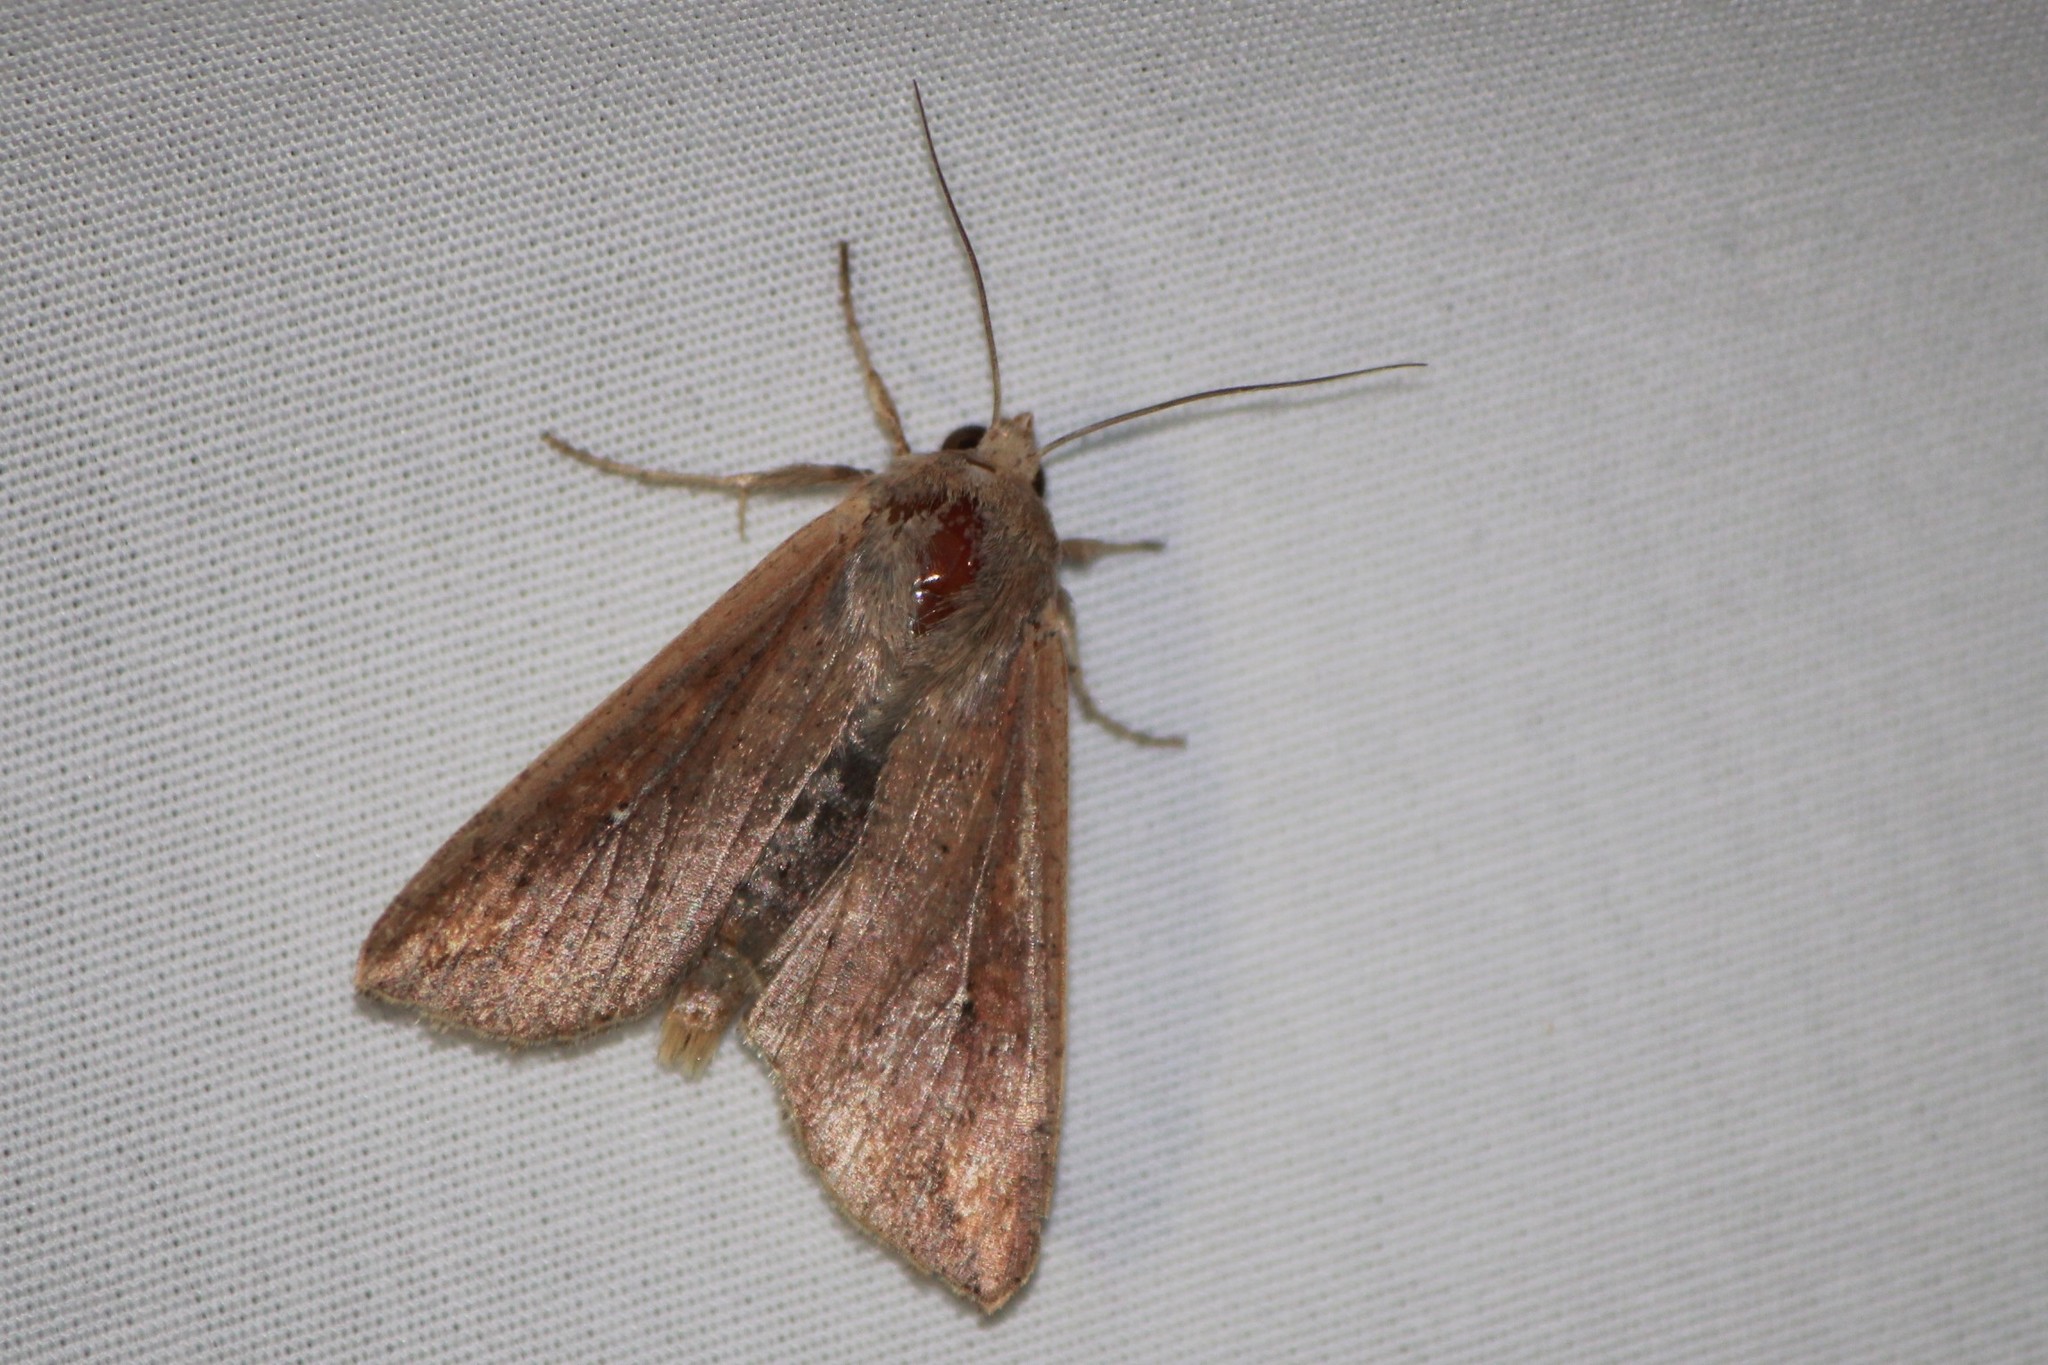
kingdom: Animalia
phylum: Arthropoda
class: Insecta
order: Lepidoptera
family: Noctuidae
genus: Mythimna
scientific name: Mythimna unipuncta
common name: White-speck
